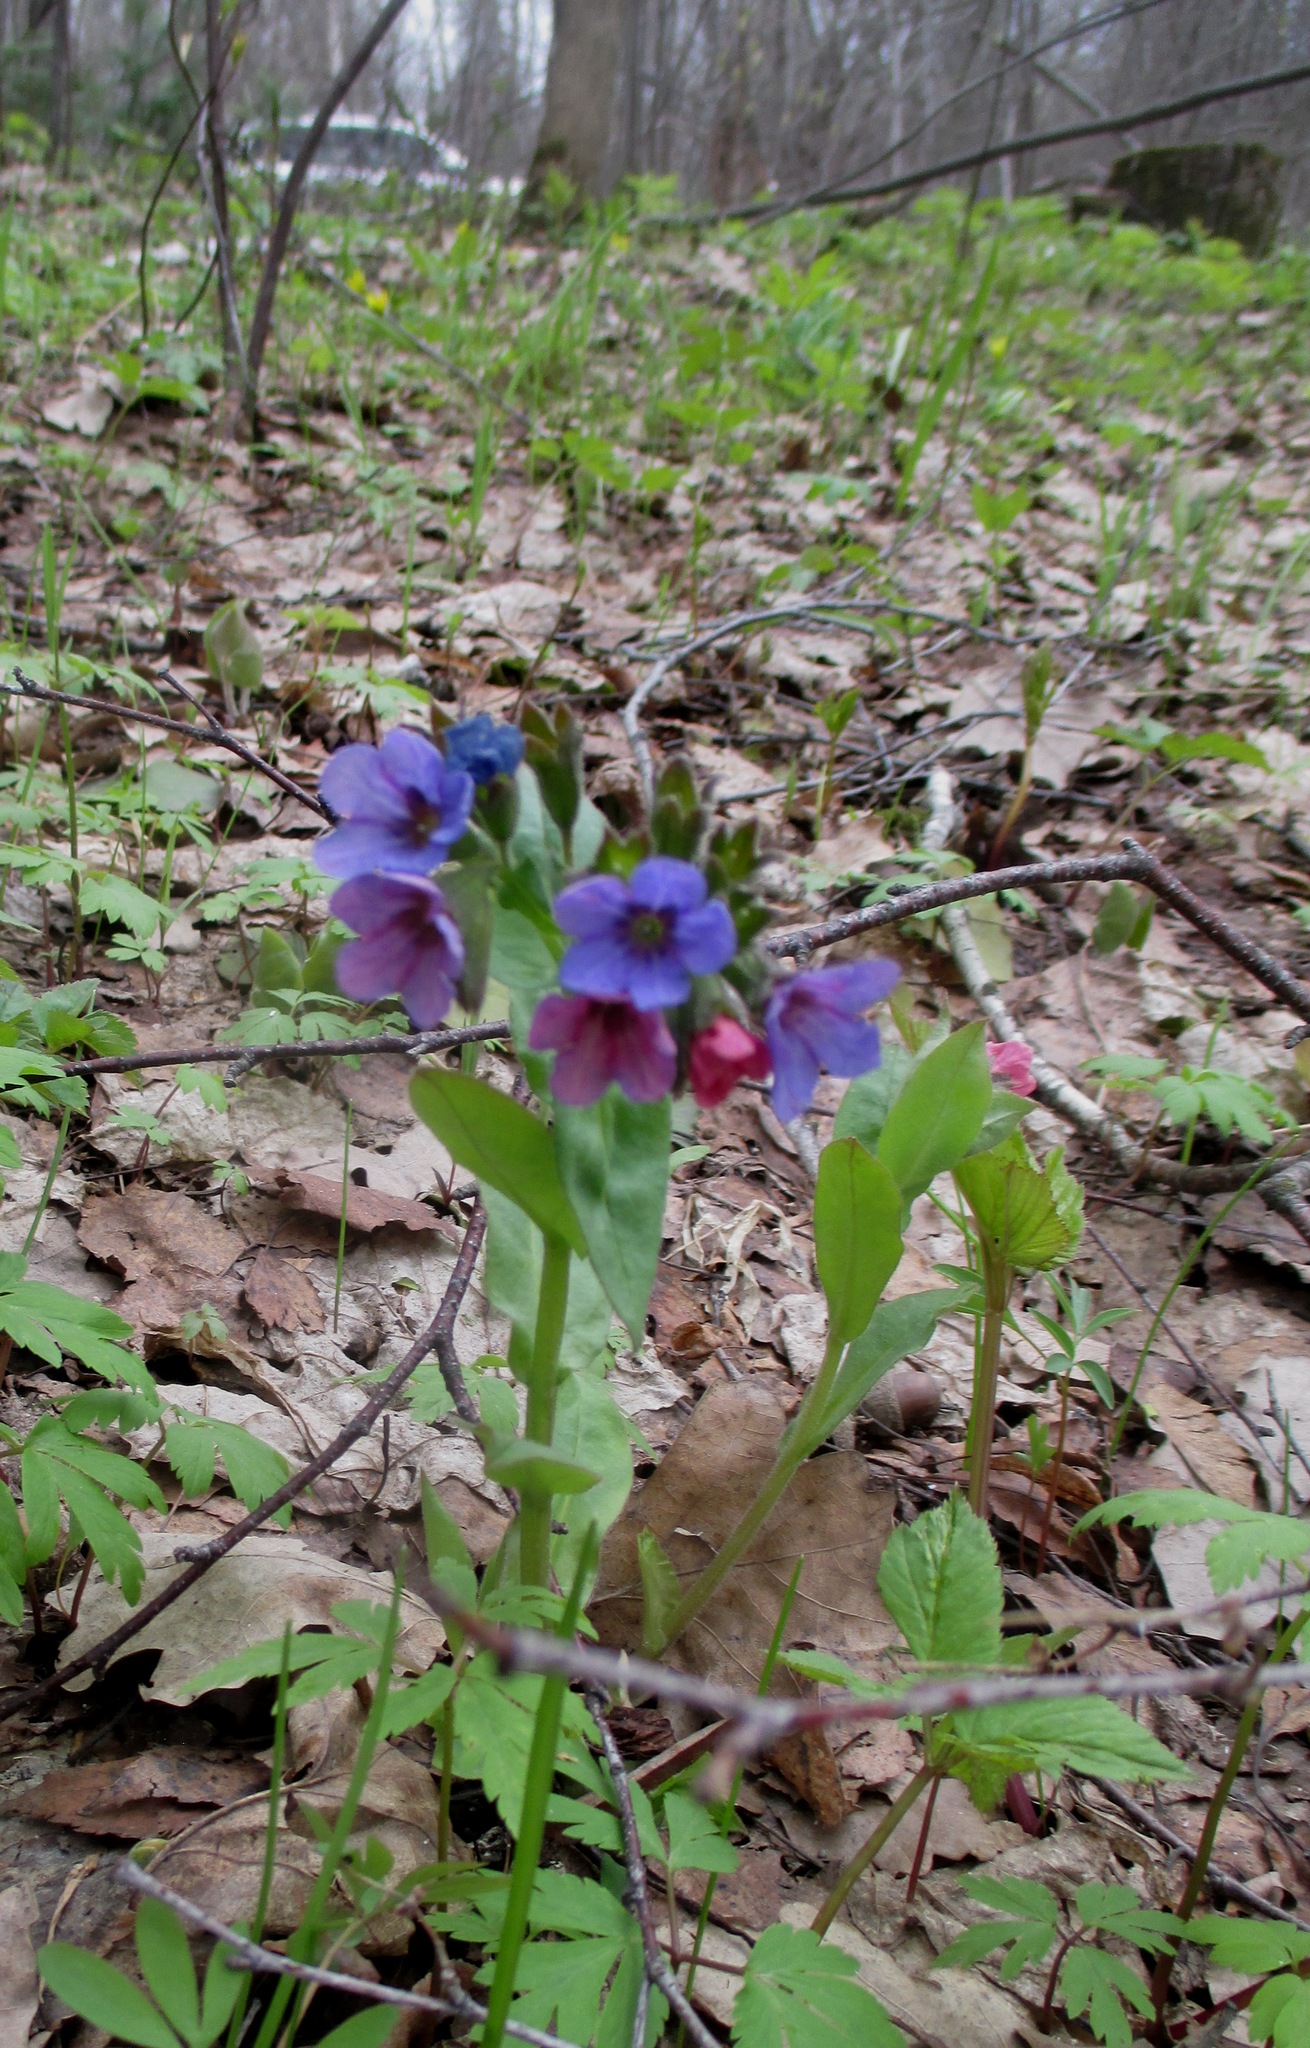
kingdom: Plantae
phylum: Tracheophyta
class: Magnoliopsida
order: Boraginales
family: Boraginaceae
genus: Pulmonaria
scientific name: Pulmonaria obscura
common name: Suffolk lungwort
